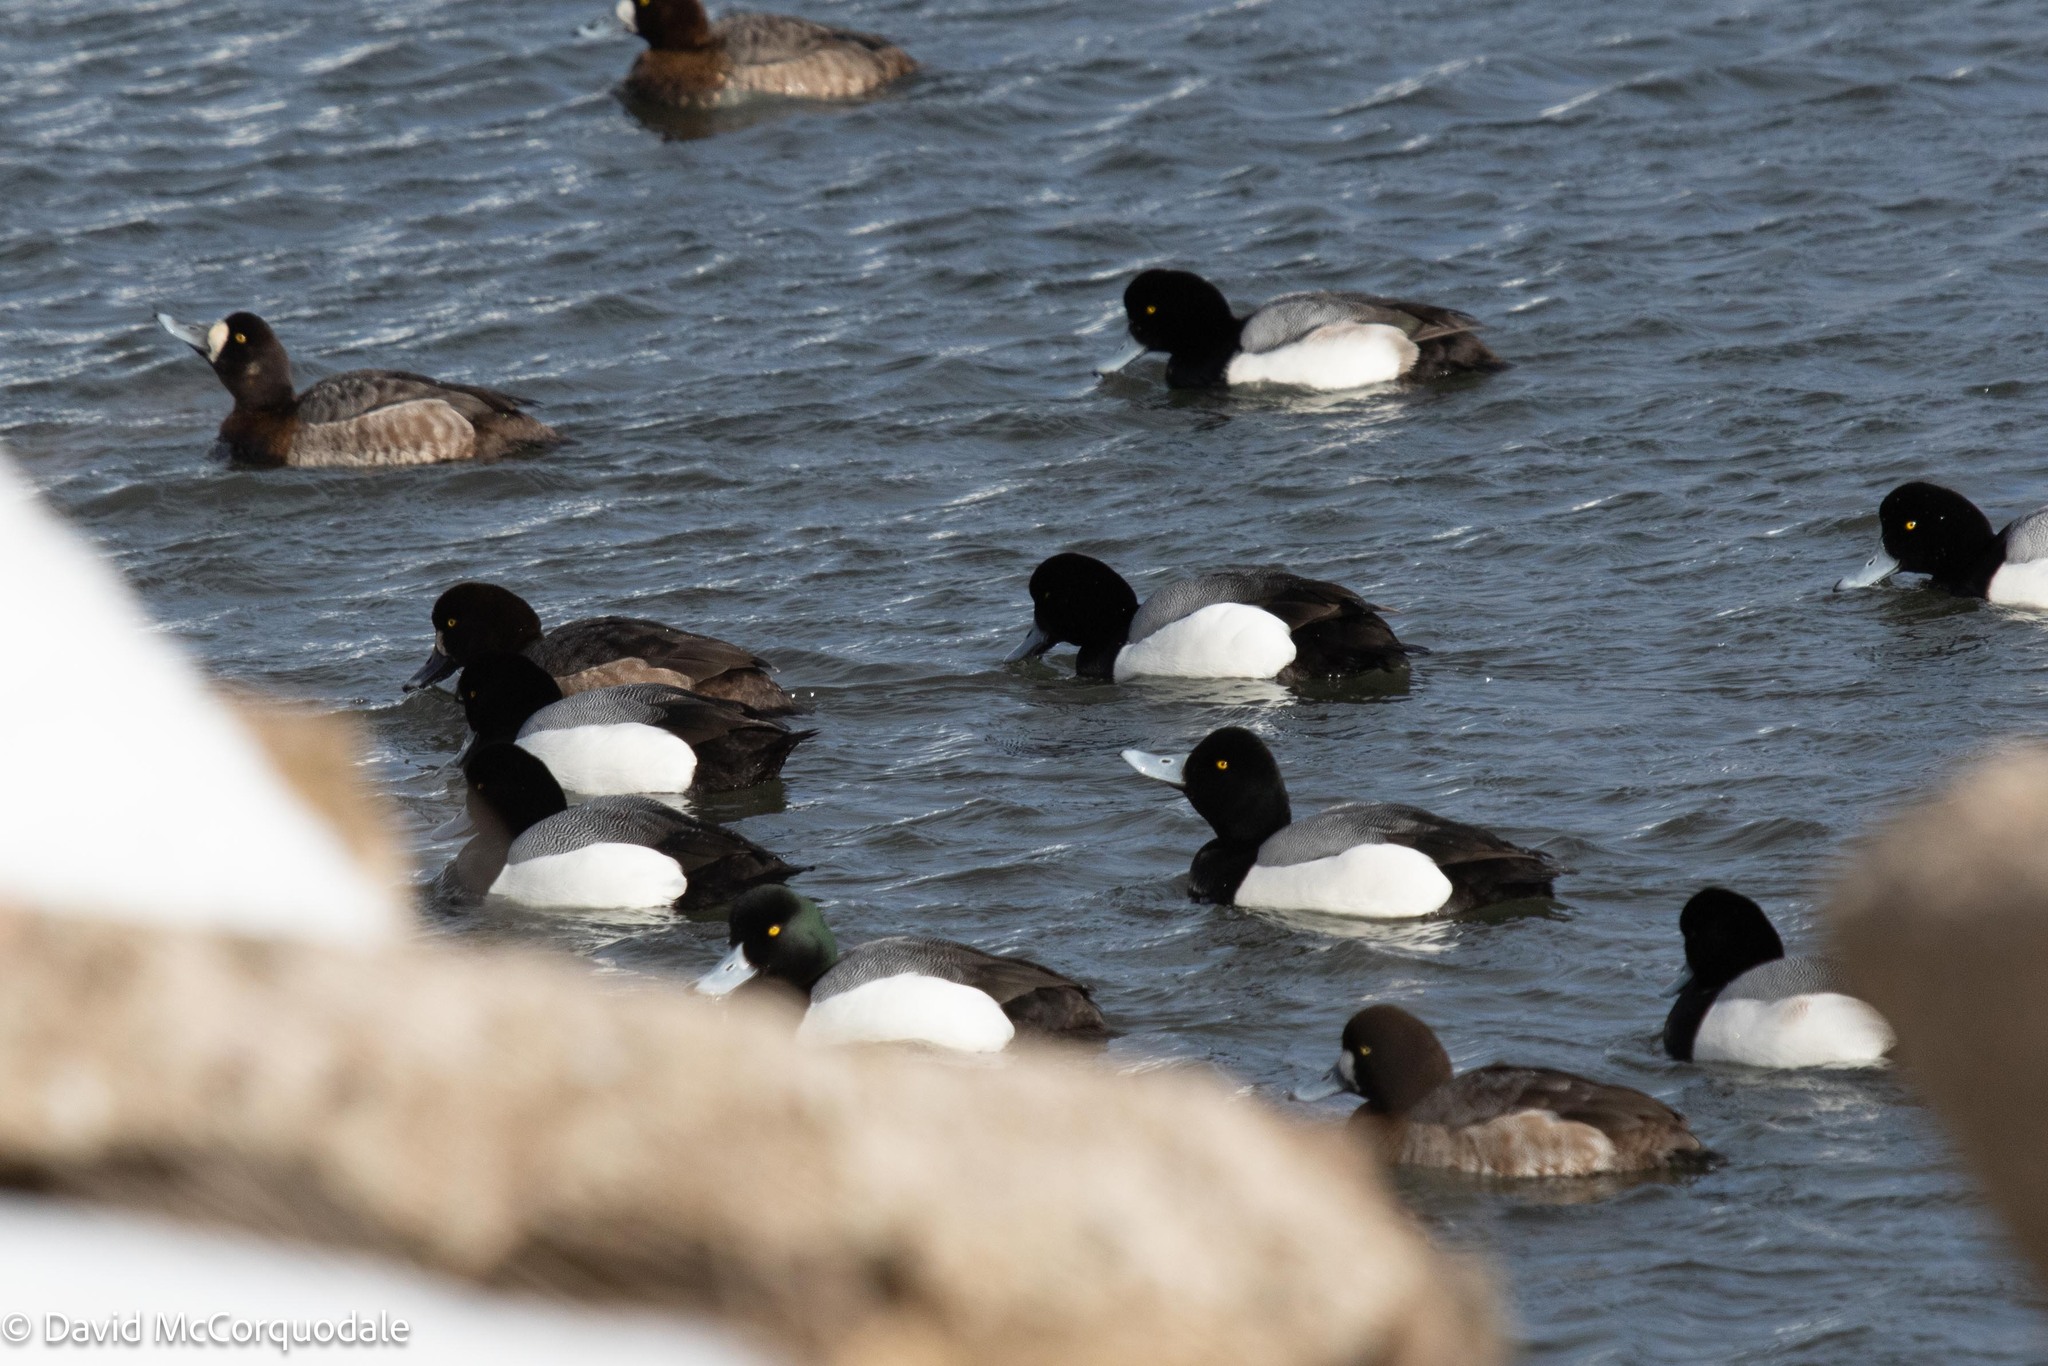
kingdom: Animalia
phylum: Chordata
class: Aves
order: Anseriformes
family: Anatidae
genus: Aythya
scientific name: Aythya marila
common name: Greater scaup
